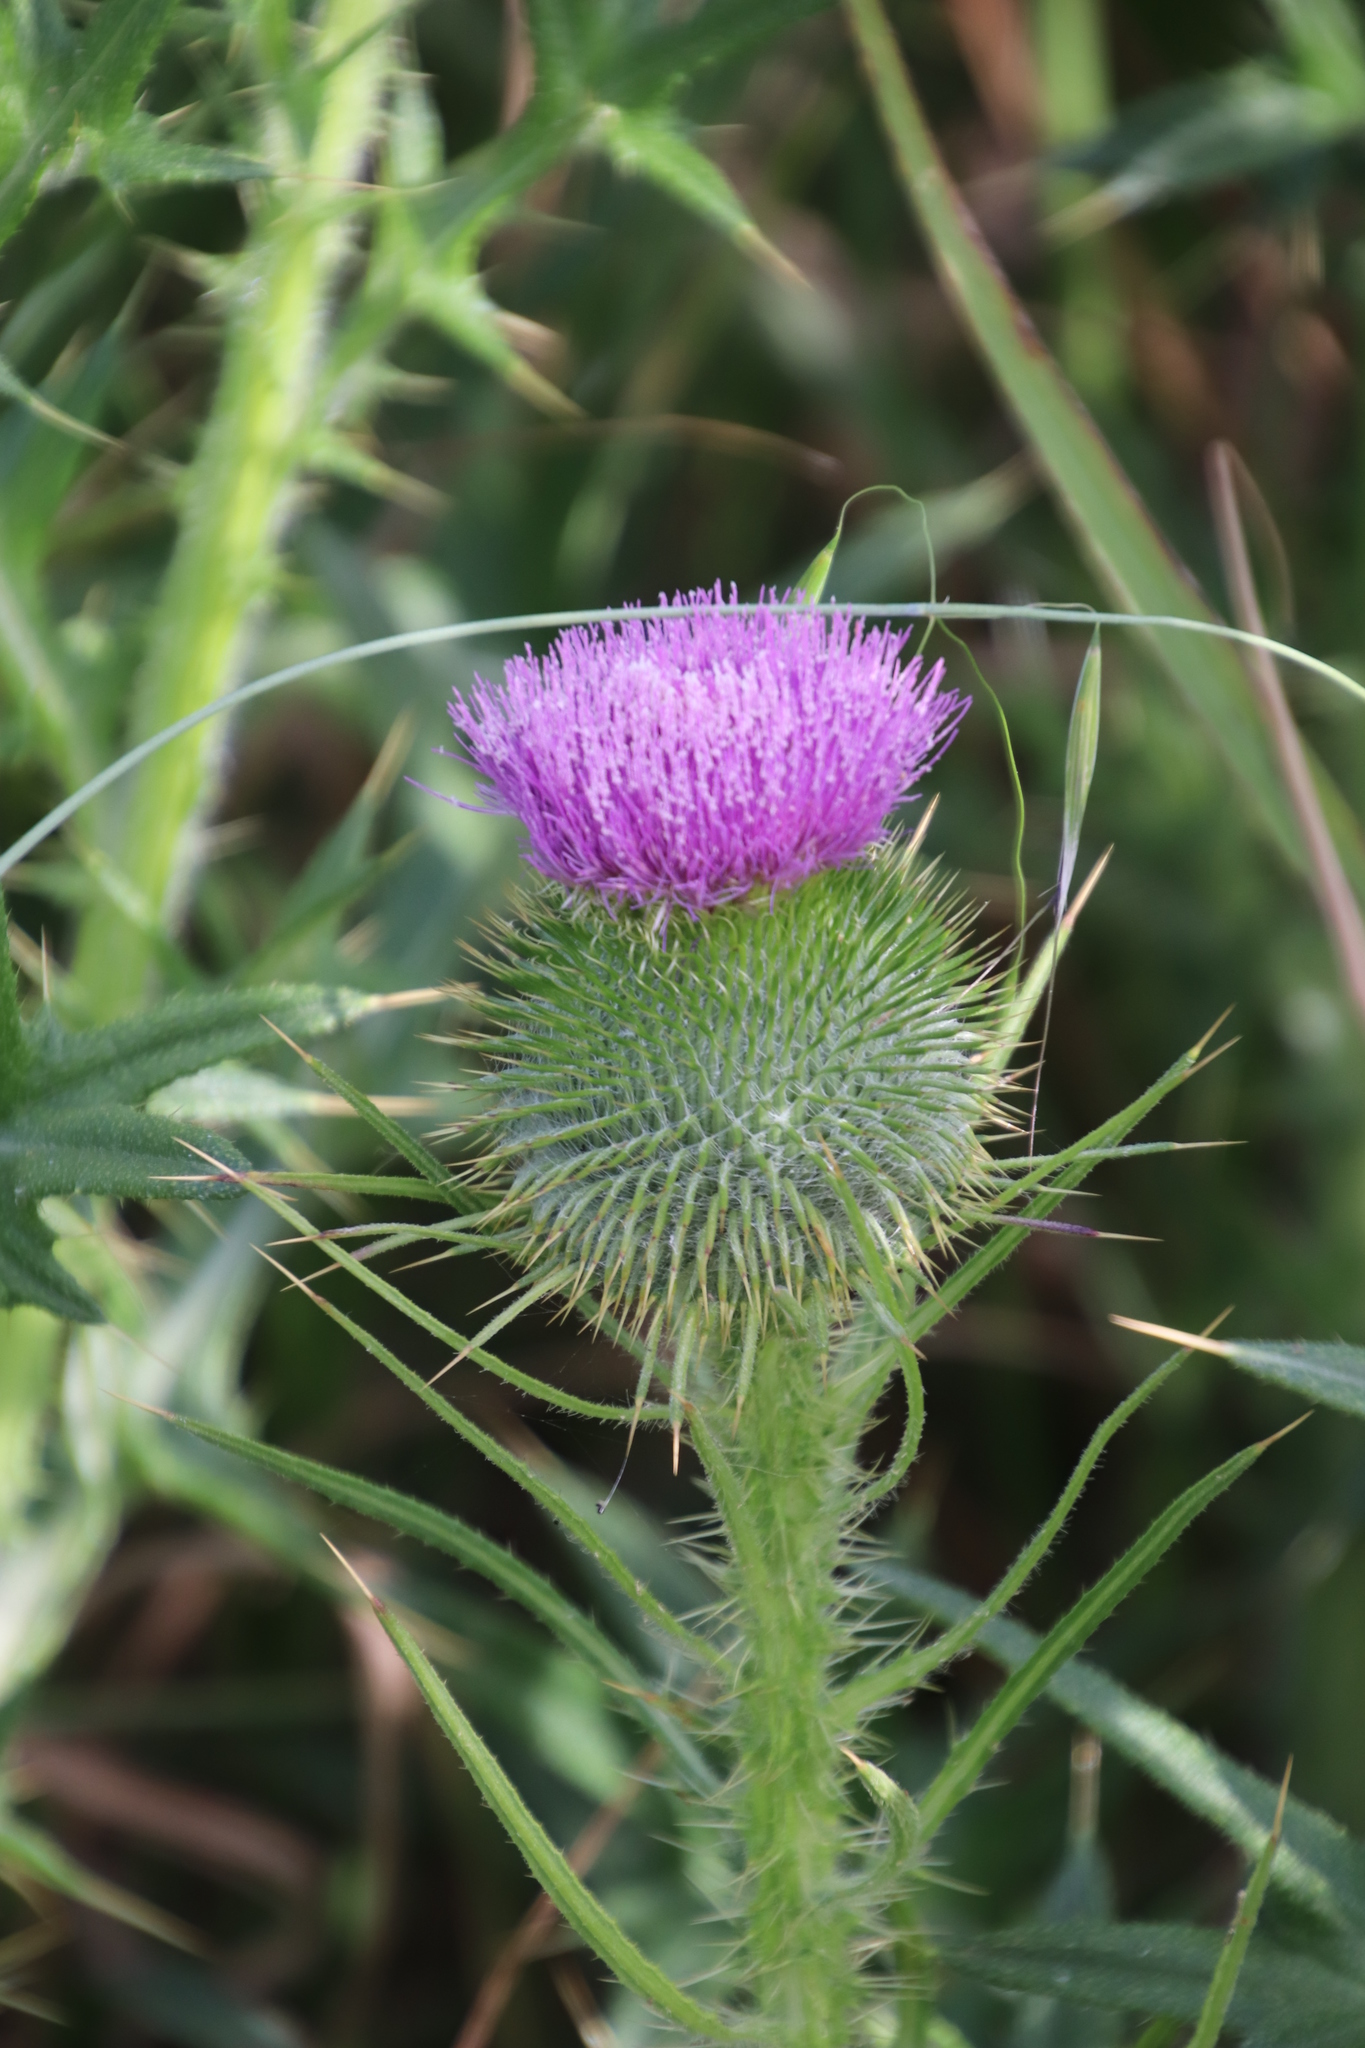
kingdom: Plantae
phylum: Tracheophyta
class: Magnoliopsida
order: Asterales
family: Asteraceae
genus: Cirsium
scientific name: Cirsium vulgare
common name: Bull thistle
